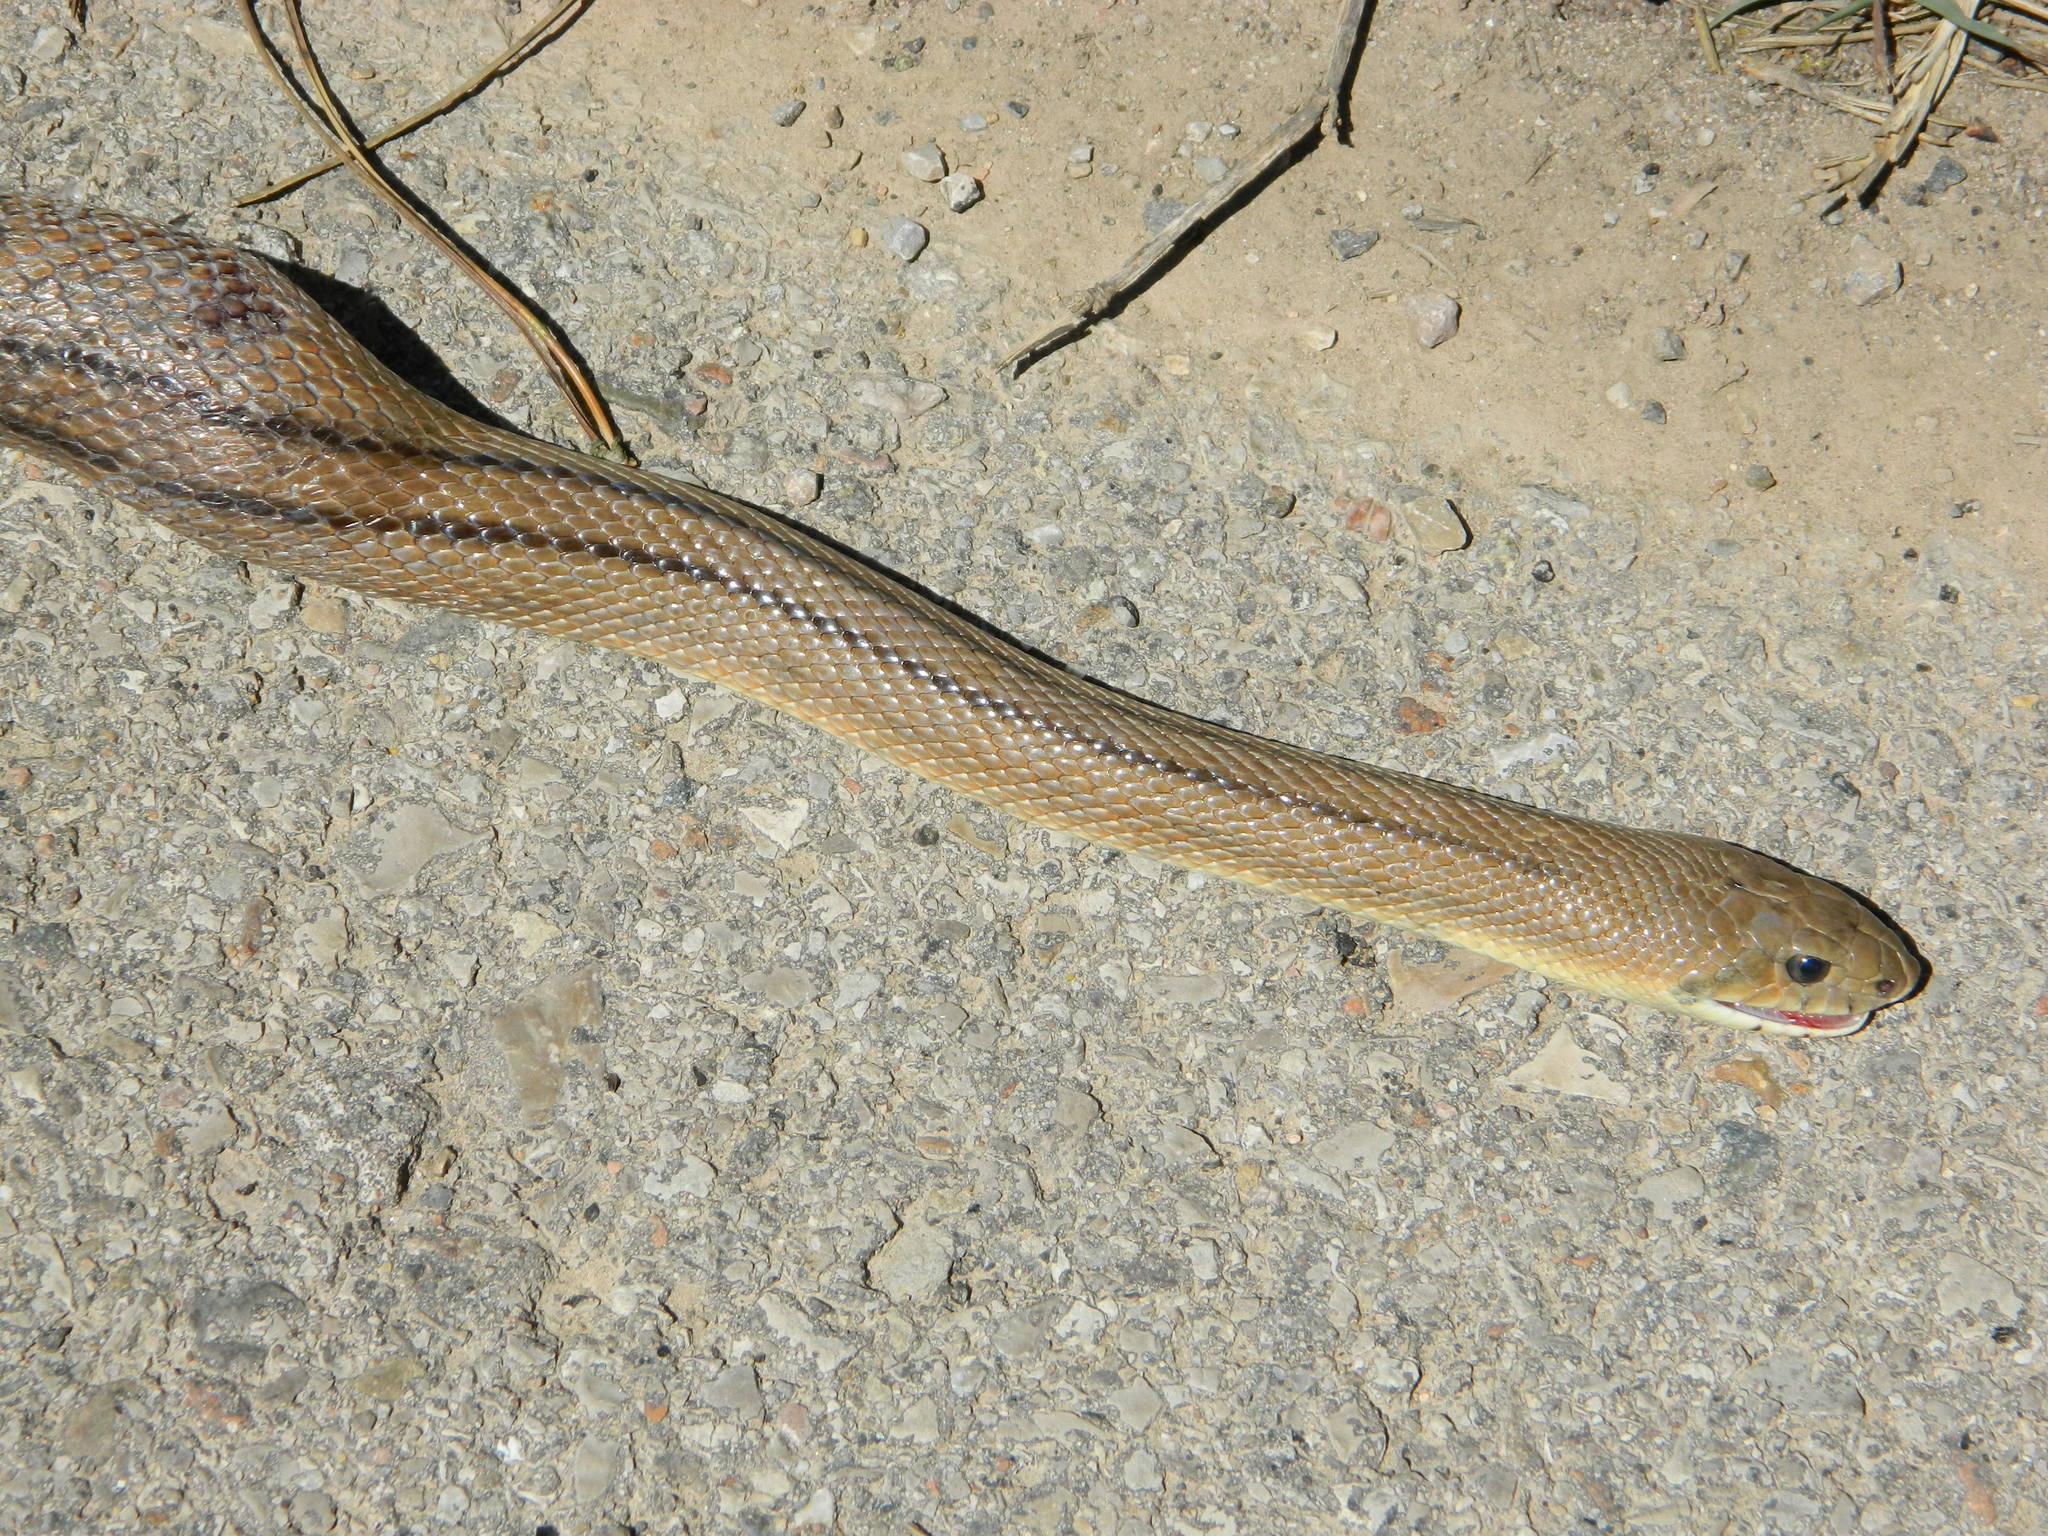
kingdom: Animalia
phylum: Chordata
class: Squamata
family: Colubridae
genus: Zamenis
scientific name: Zamenis scalaris
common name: Ladder snakes
